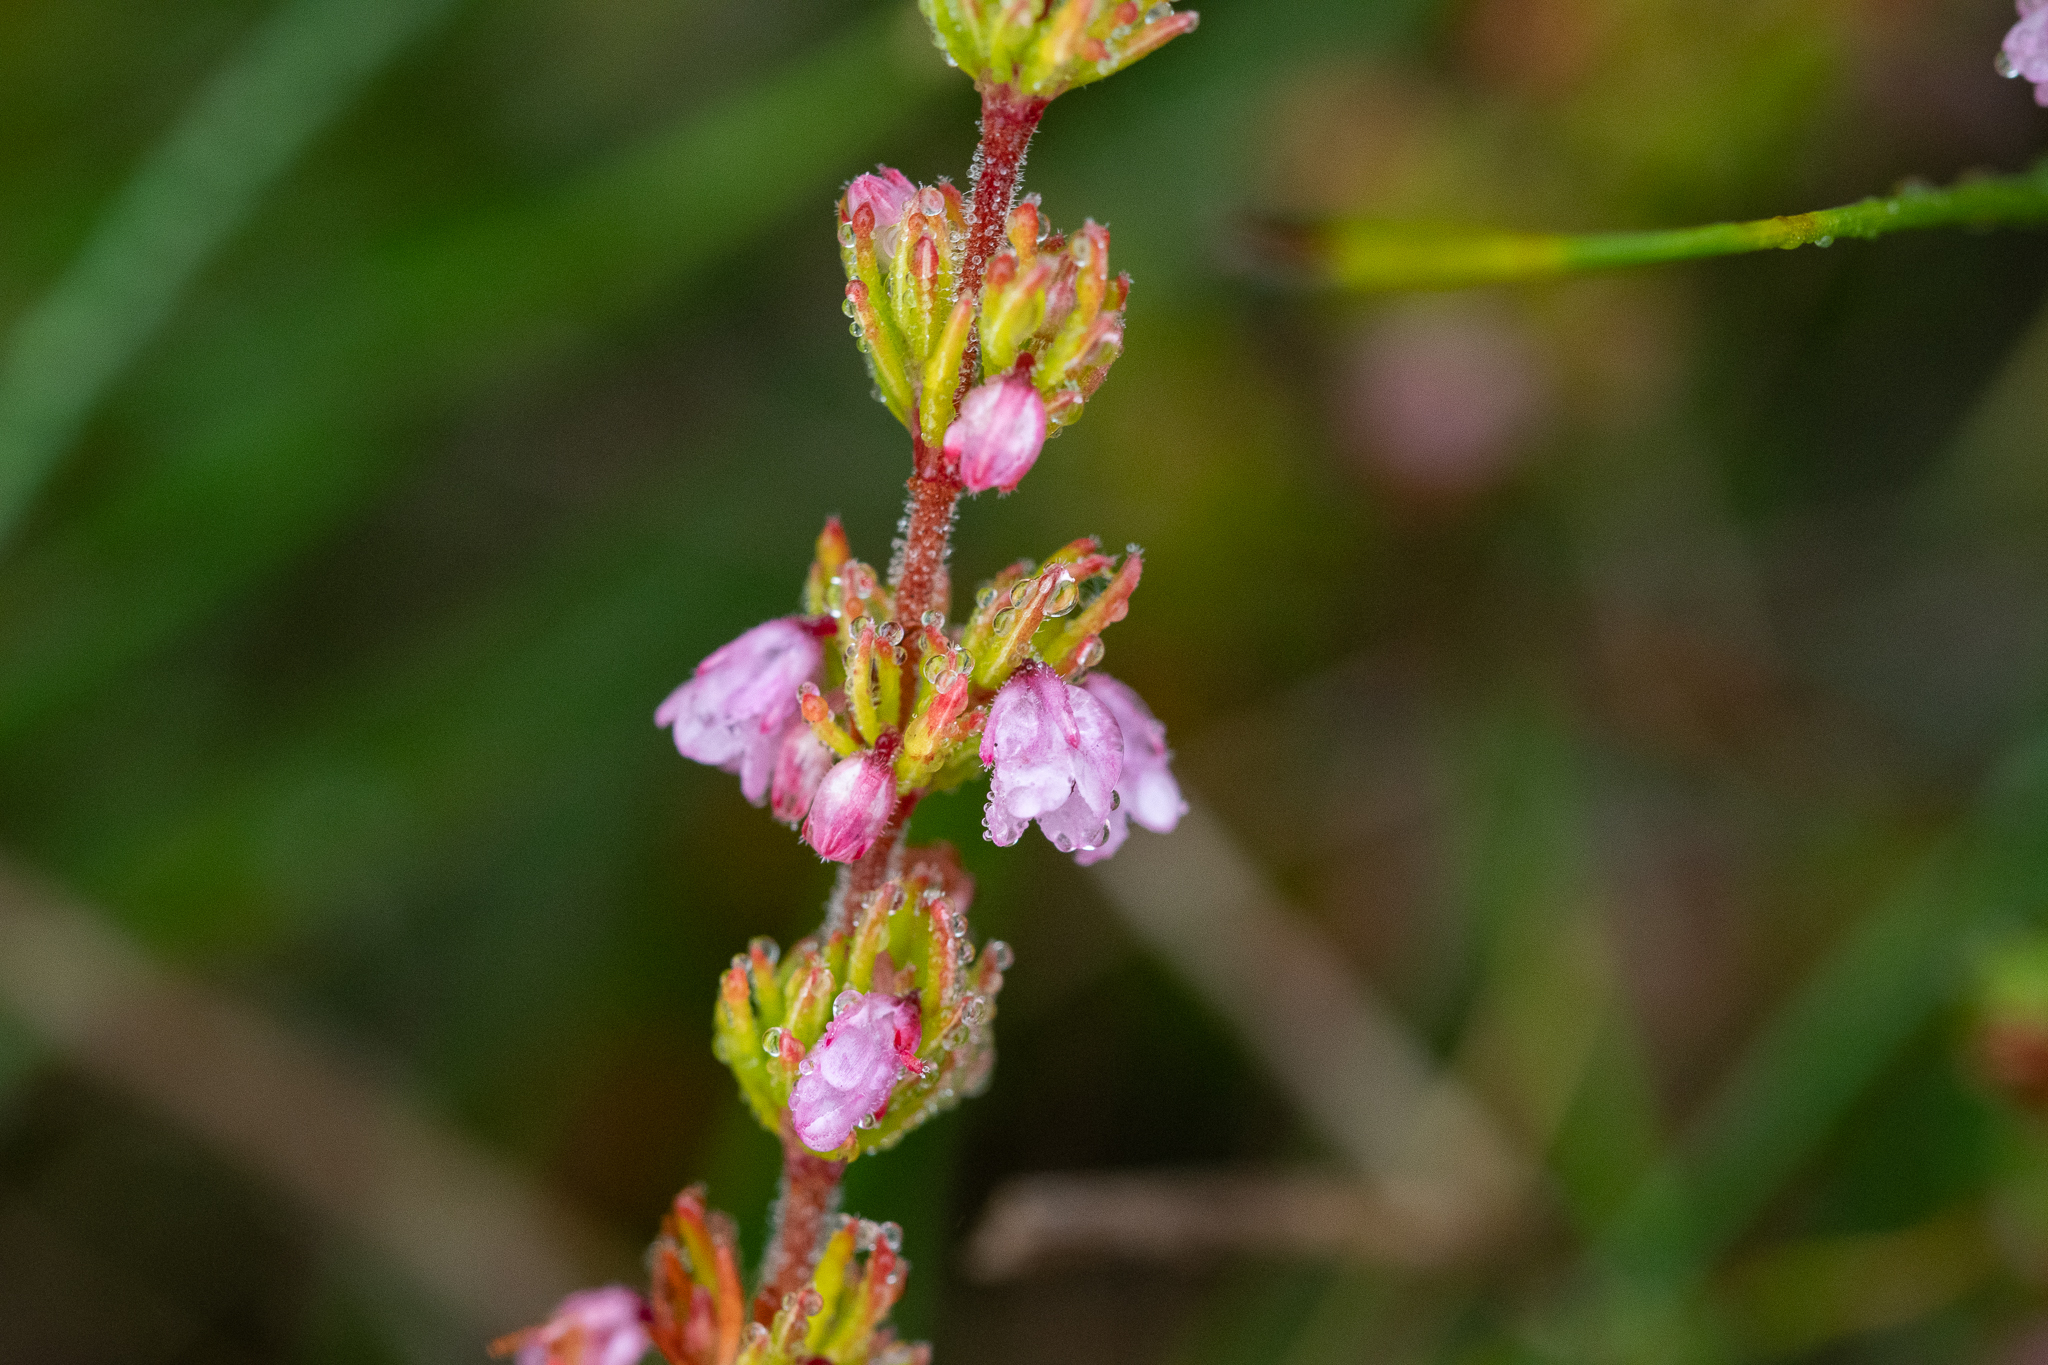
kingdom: Plantae
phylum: Tracheophyta
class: Magnoliopsida
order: Ericales
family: Ericaceae
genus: Erica
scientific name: Erica autumnalis
